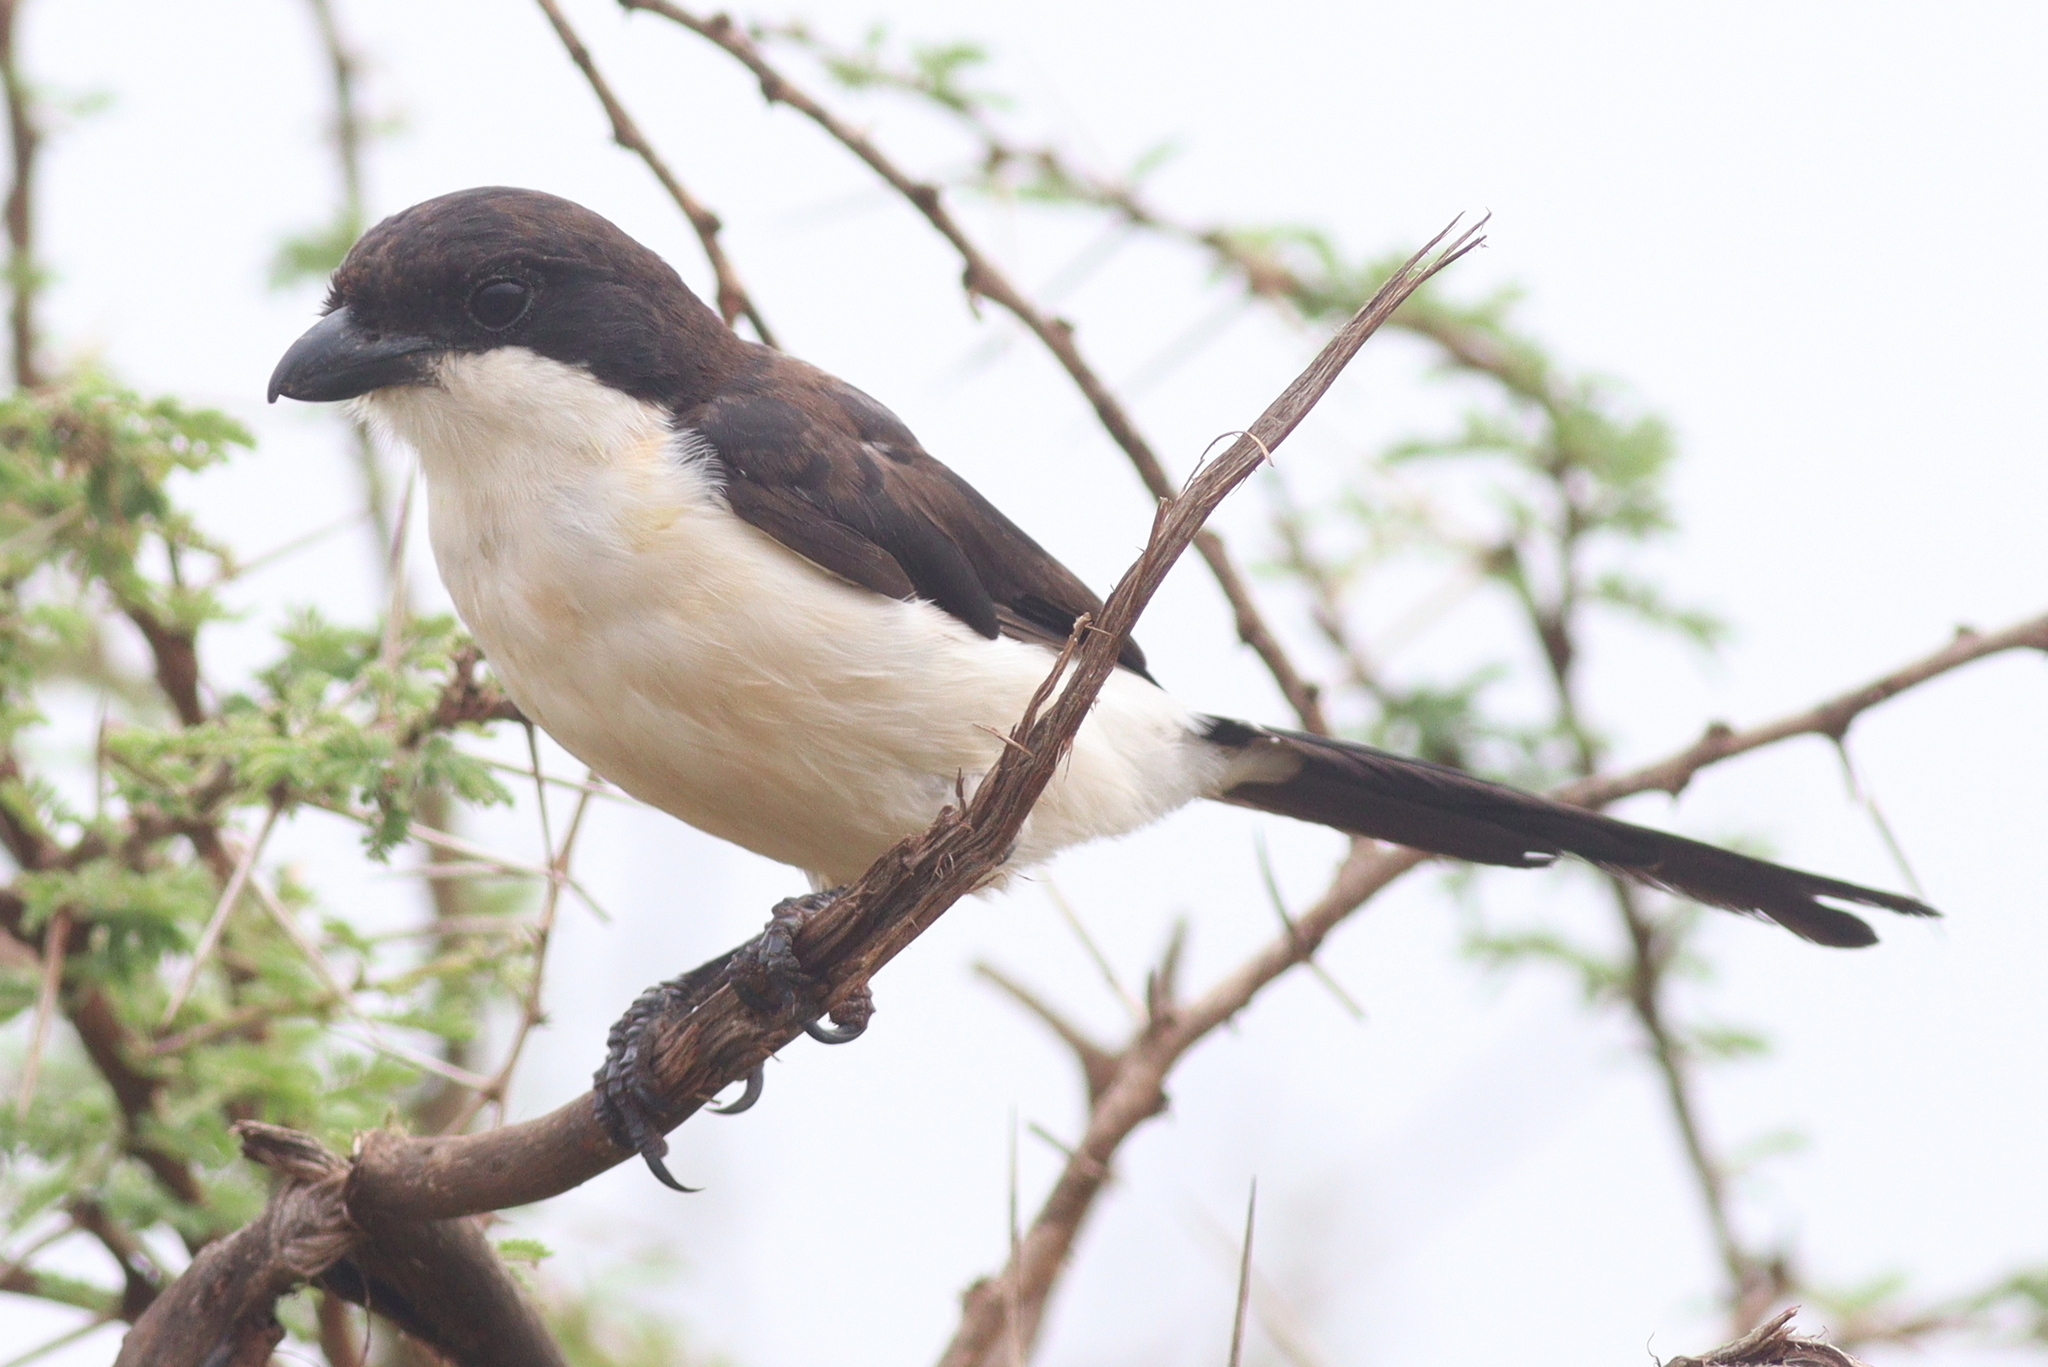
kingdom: Animalia
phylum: Chordata
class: Aves
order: Passeriformes
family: Laniidae
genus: Lanius
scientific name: Lanius cabanisi
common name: Long-tailed fiscal
